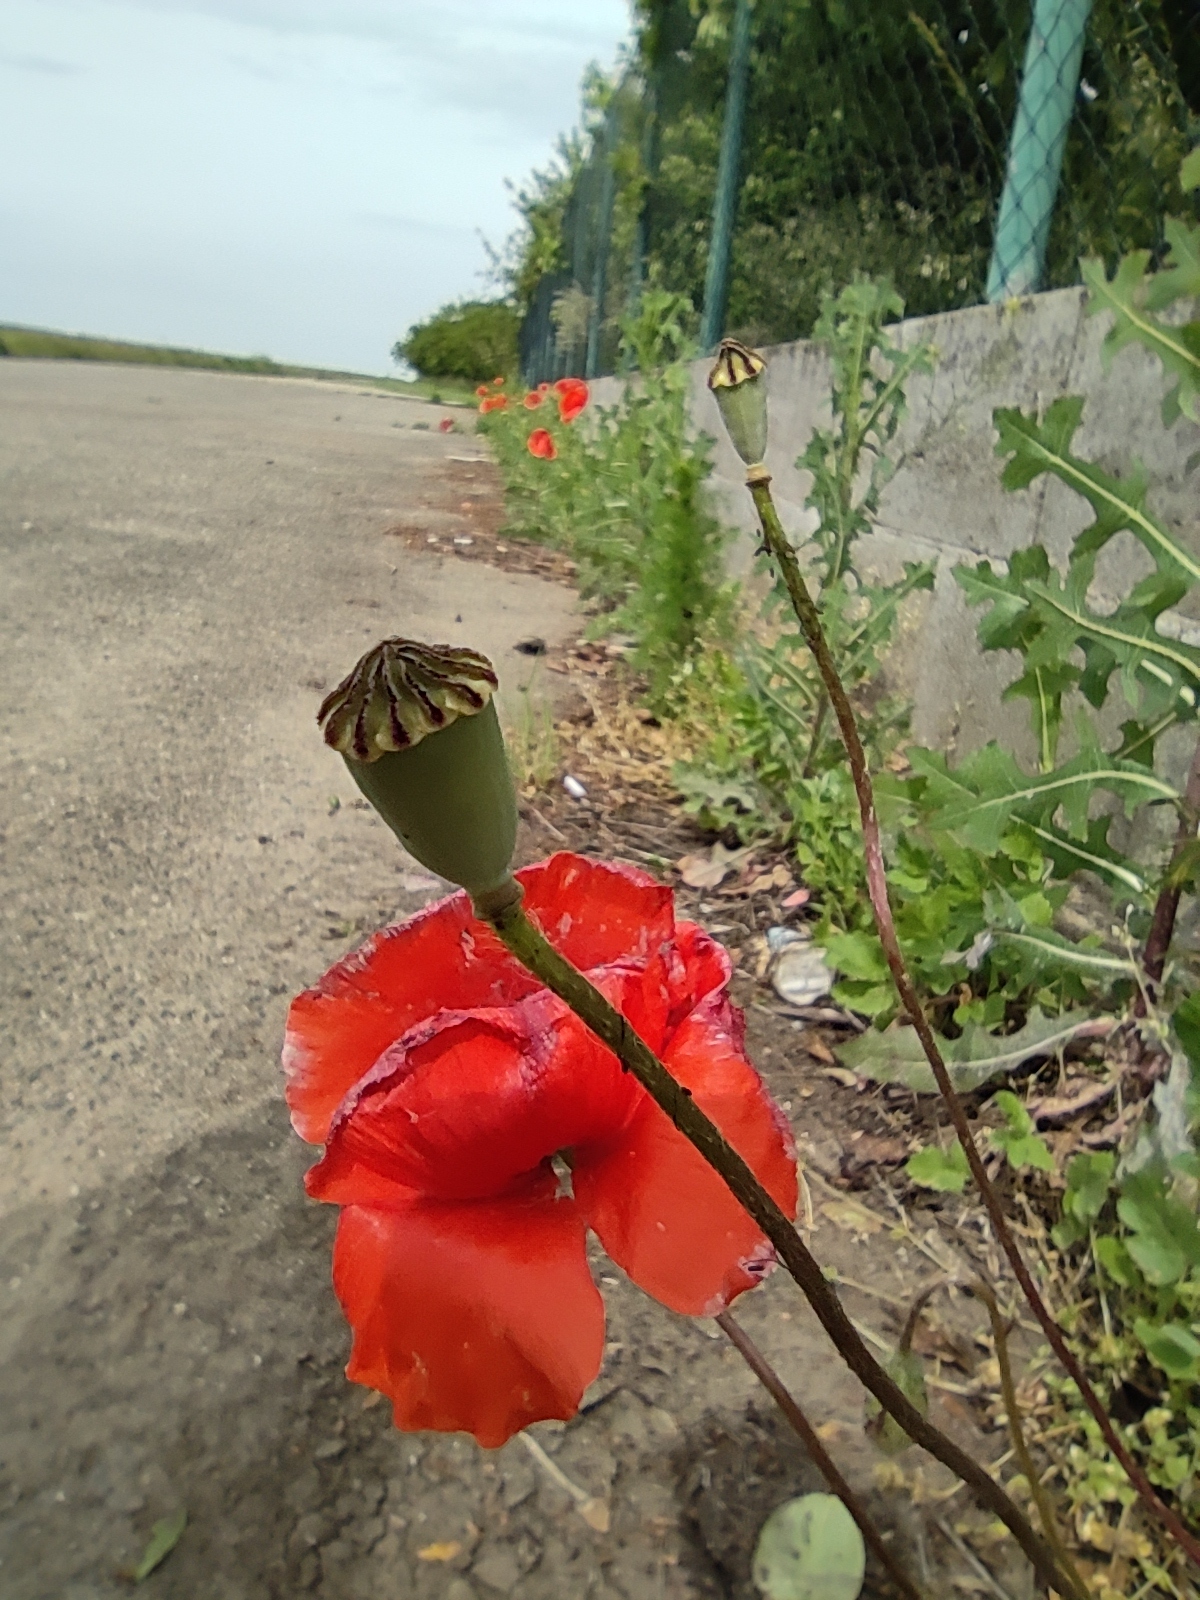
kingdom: Plantae
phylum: Tracheophyta
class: Magnoliopsida
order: Ranunculales
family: Papaveraceae
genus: Papaver
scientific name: Papaver rhoeas
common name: Corn poppy
